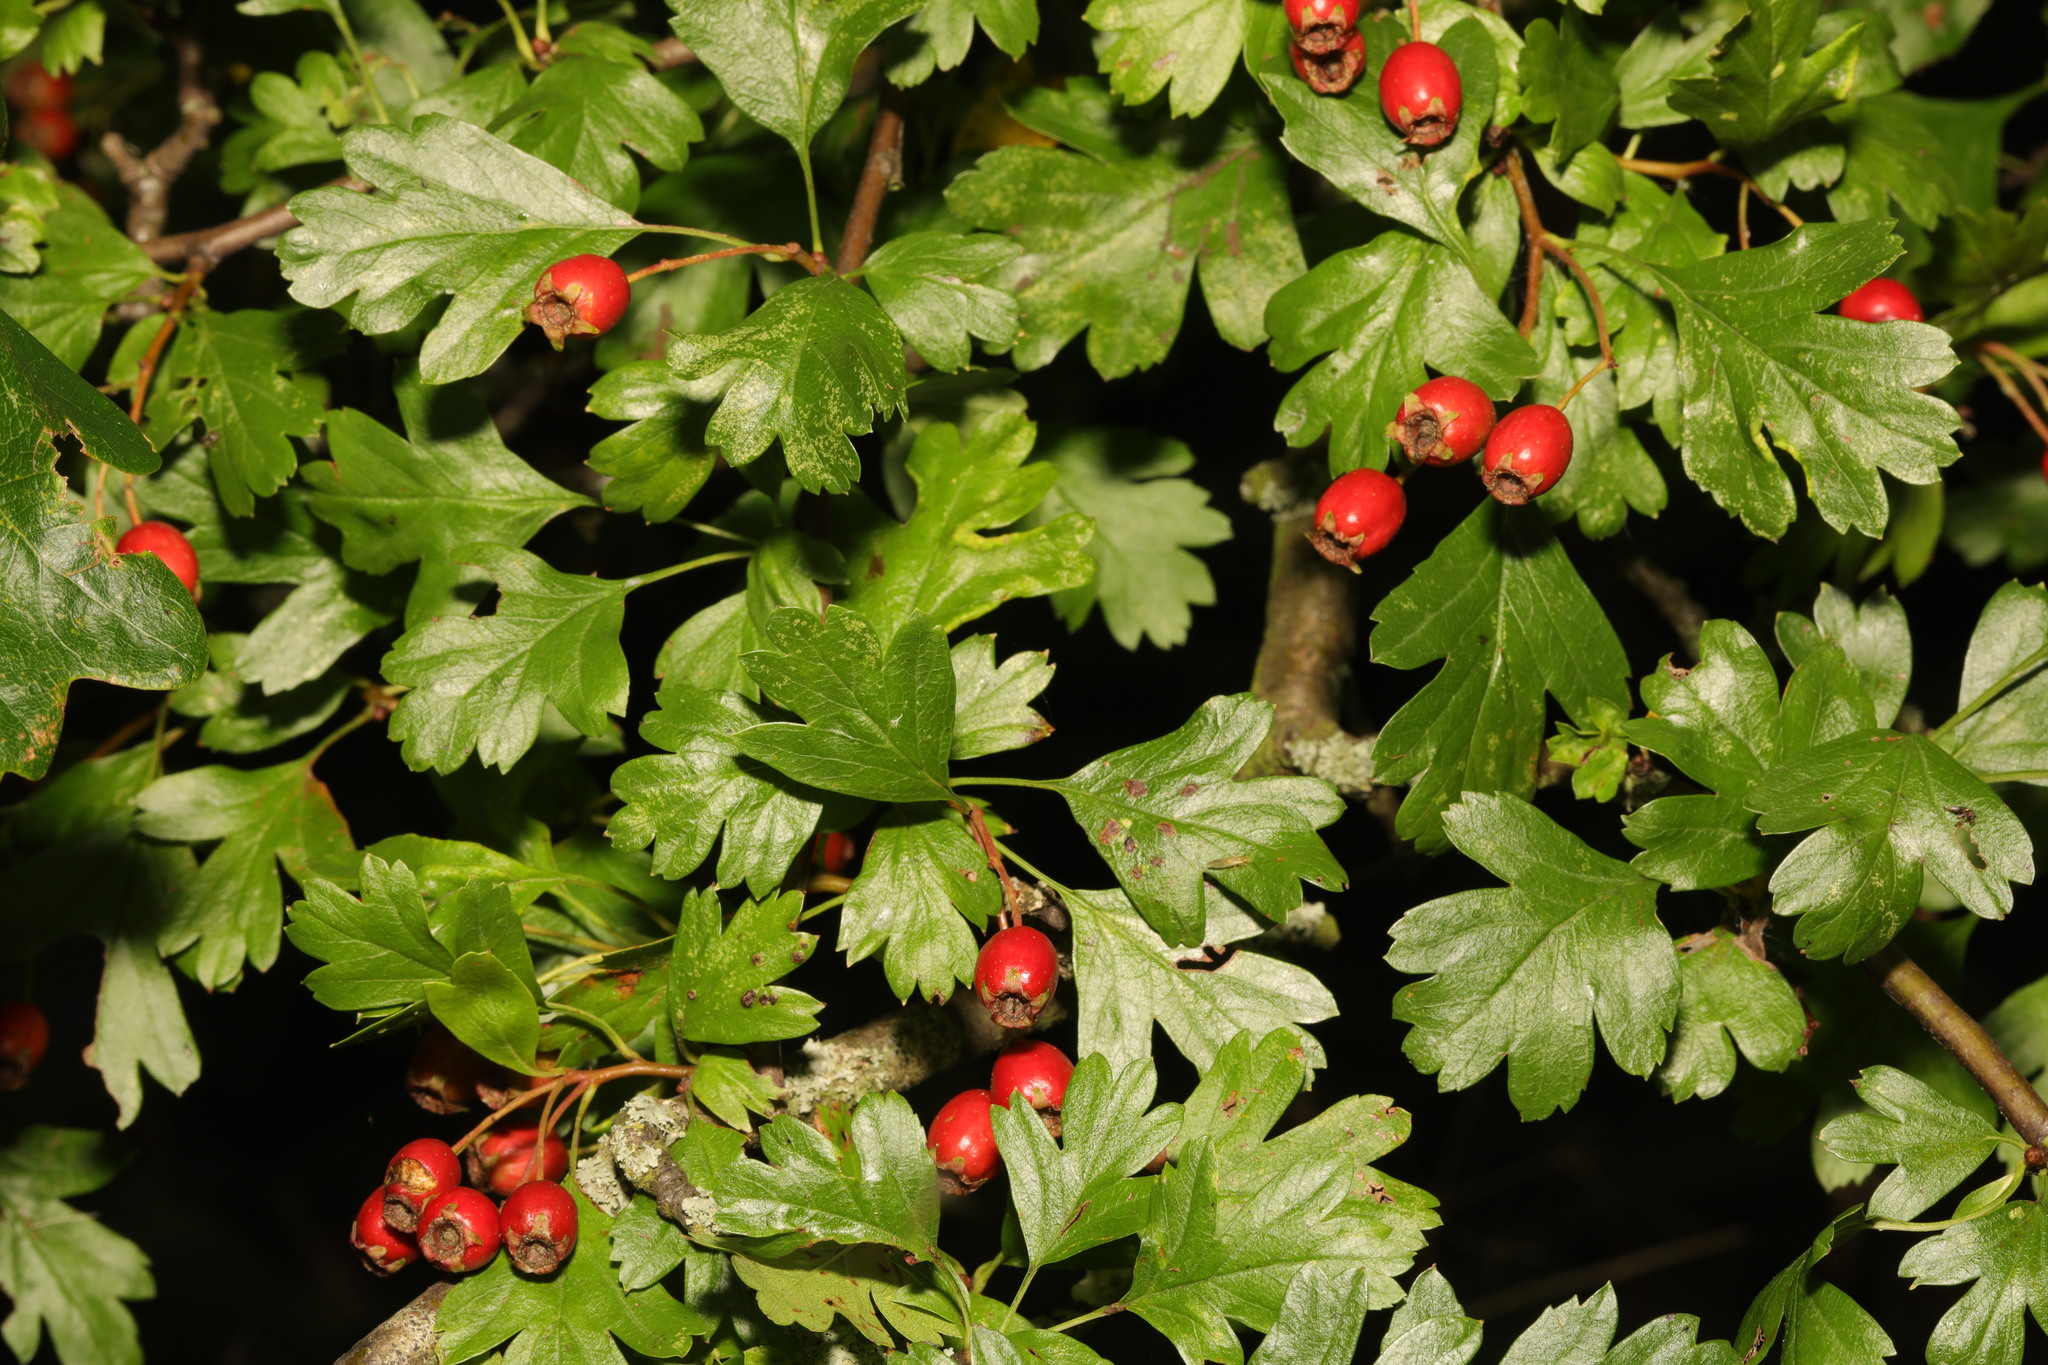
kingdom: Plantae
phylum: Tracheophyta
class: Magnoliopsida
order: Rosales
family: Rosaceae
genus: Crataegus
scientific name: Crataegus monogyna
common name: Hawthorn
